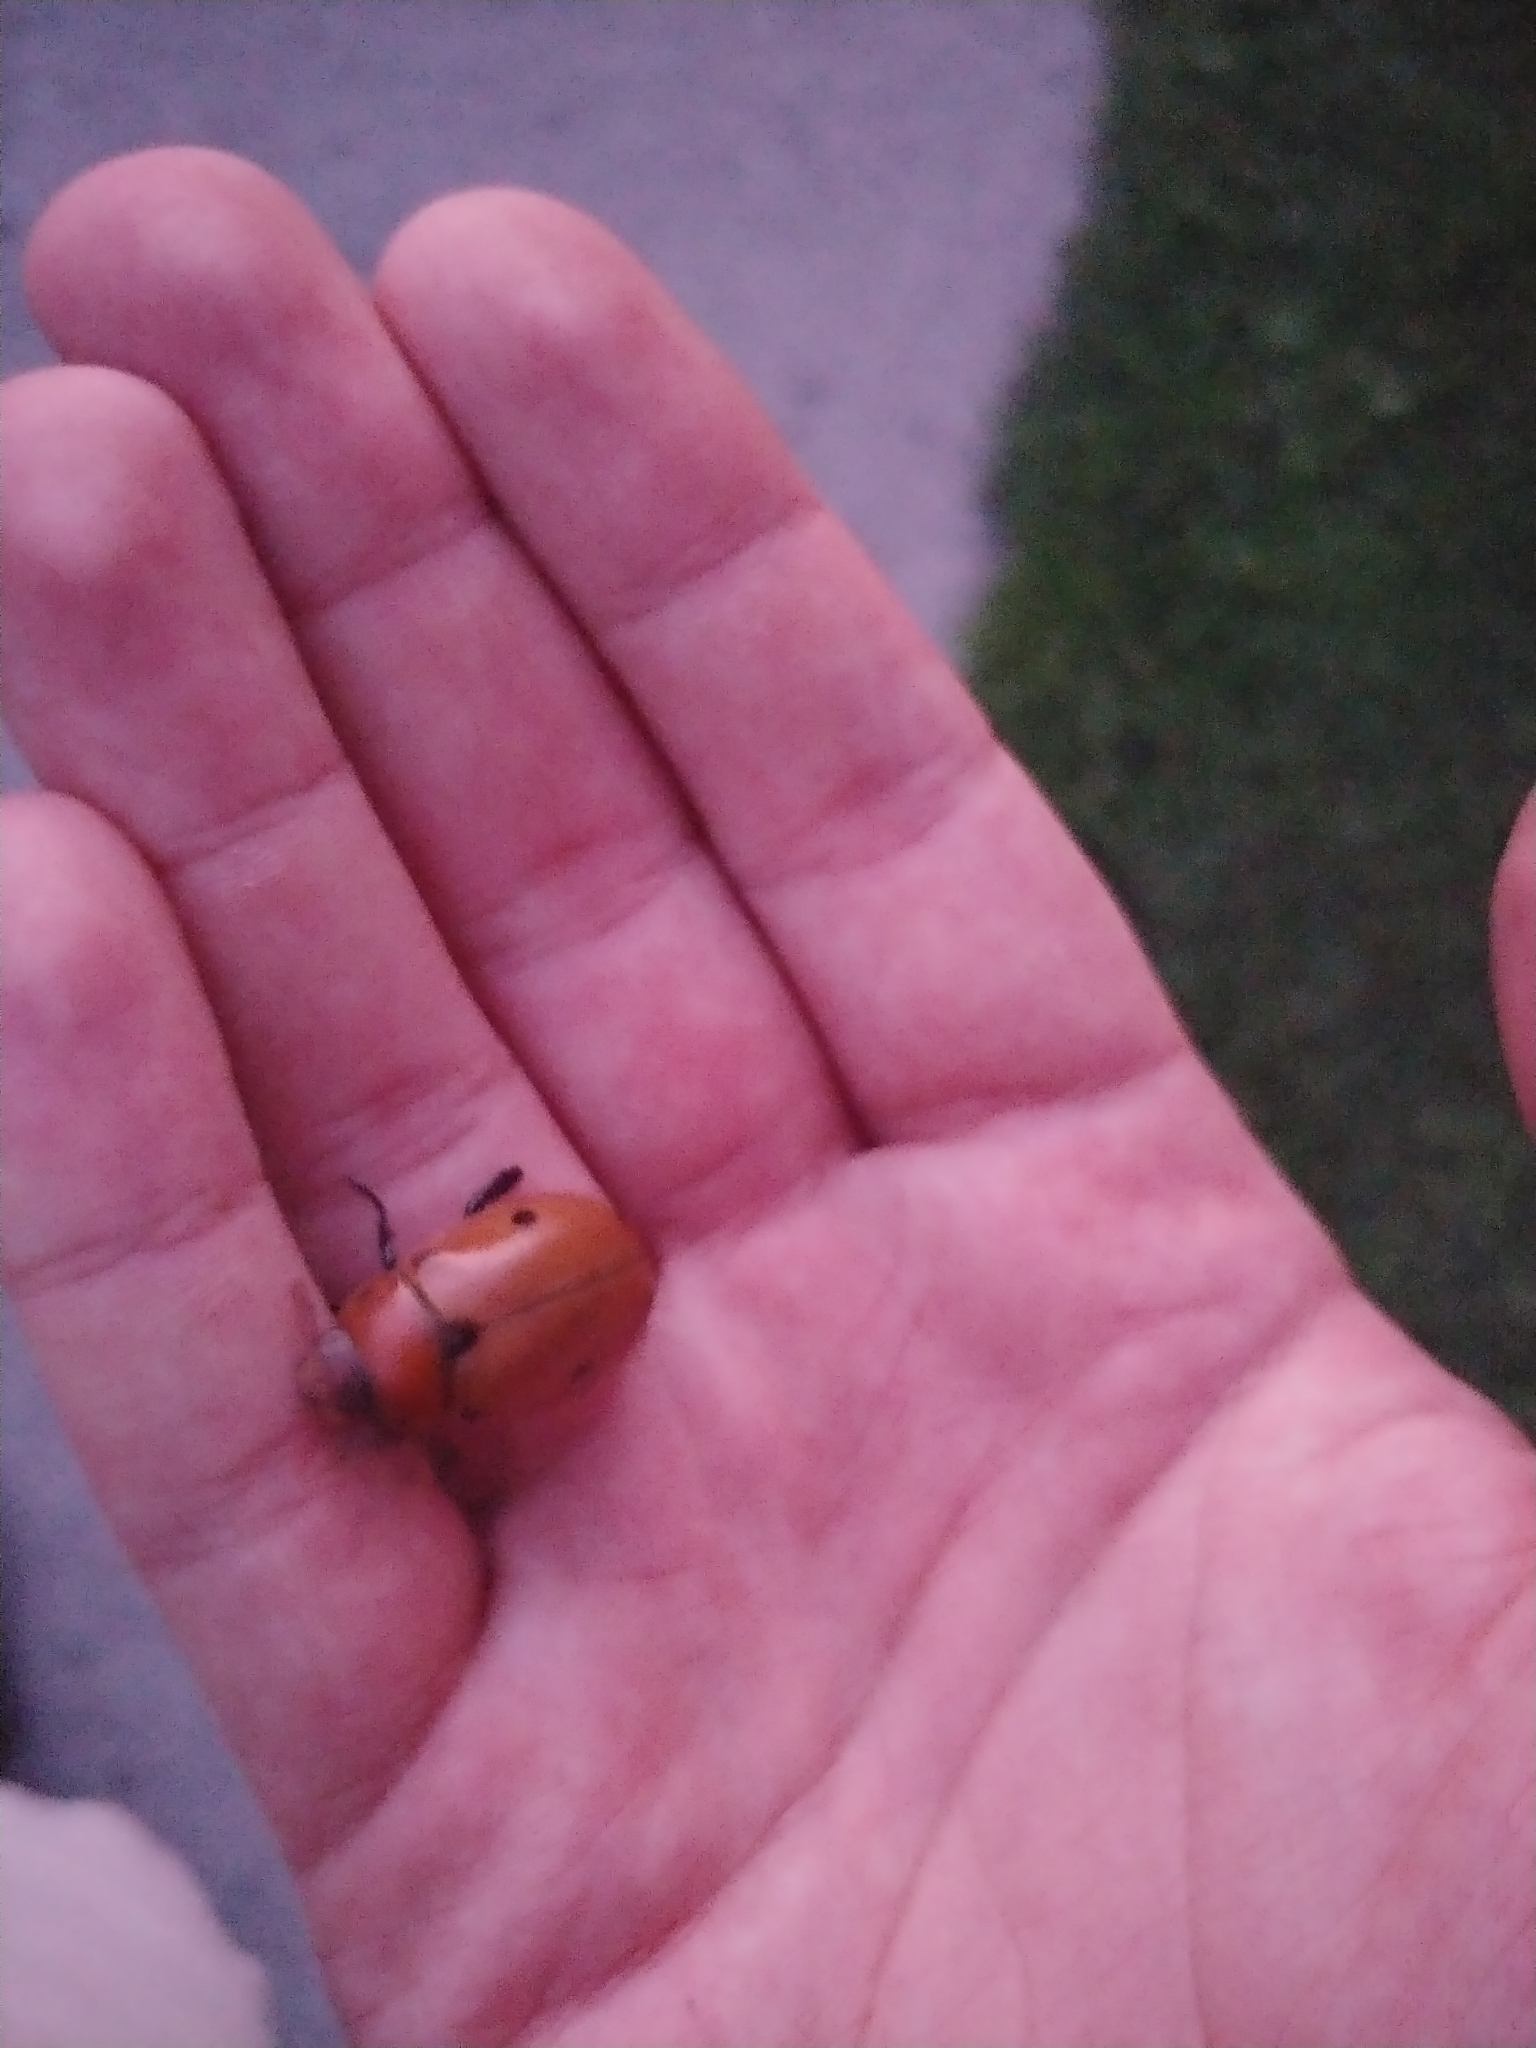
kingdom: Animalia
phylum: Arthropoda
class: Insecta
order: Coleoptera
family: Scarabaeidae
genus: Pelidnota
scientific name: Pelidnota punctata
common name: Grapevine beetle
